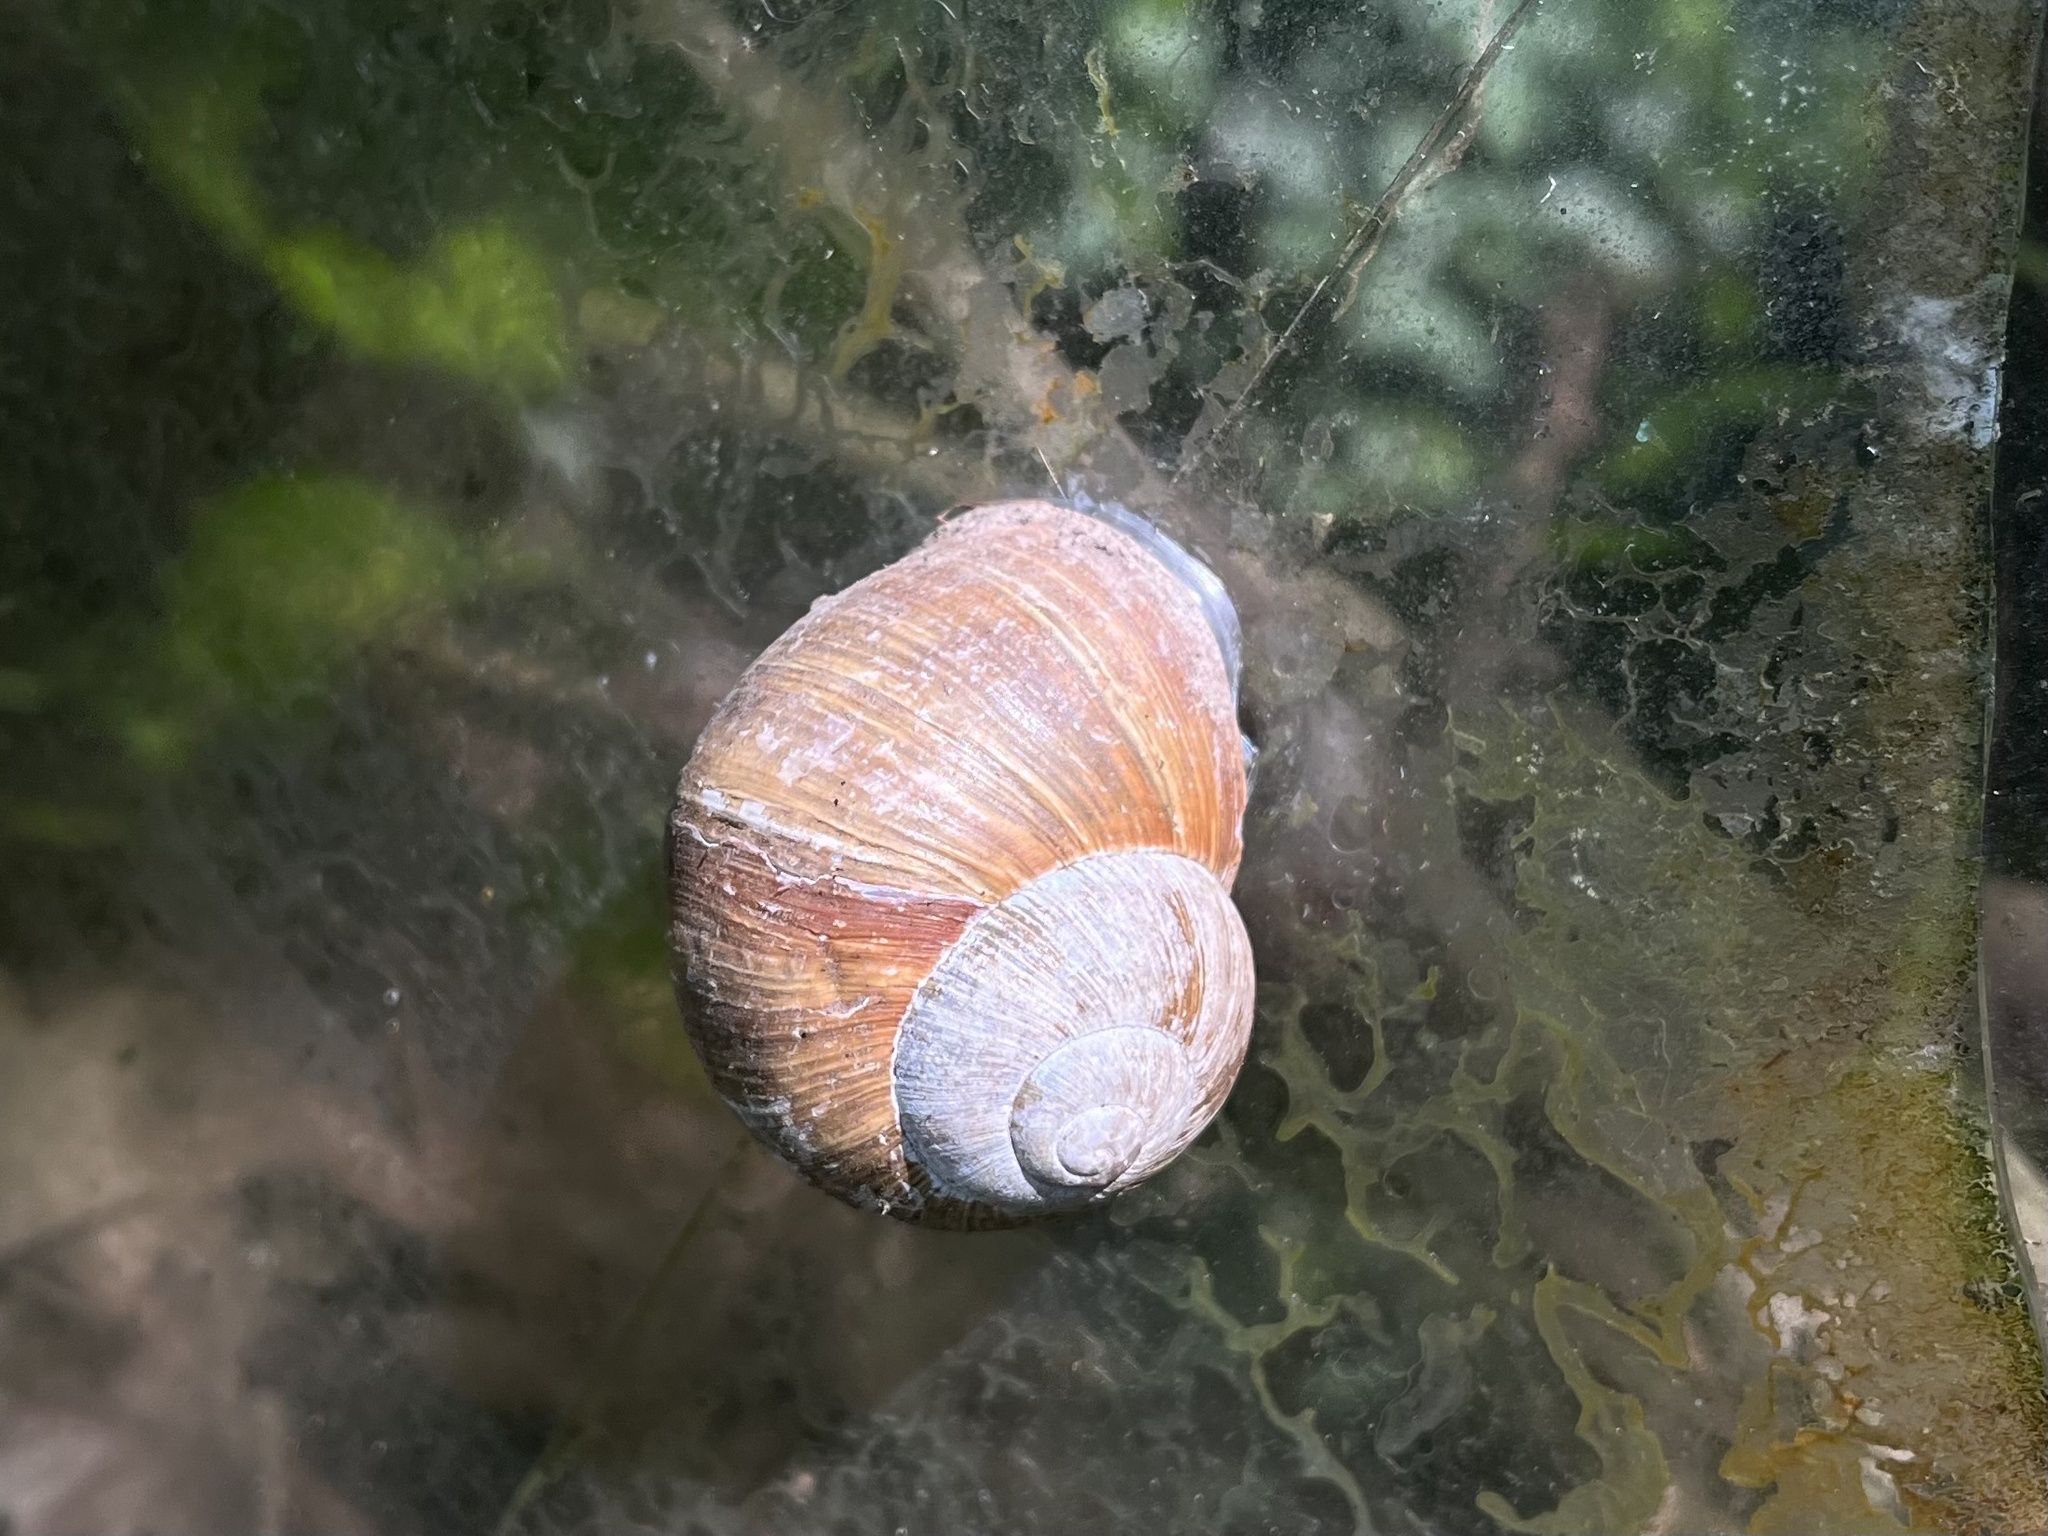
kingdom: Animalia
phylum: Mollusca
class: Gastropoda
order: Stylommatophora
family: Helicidae
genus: Helix
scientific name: Helix pomatia
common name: Roman snail
